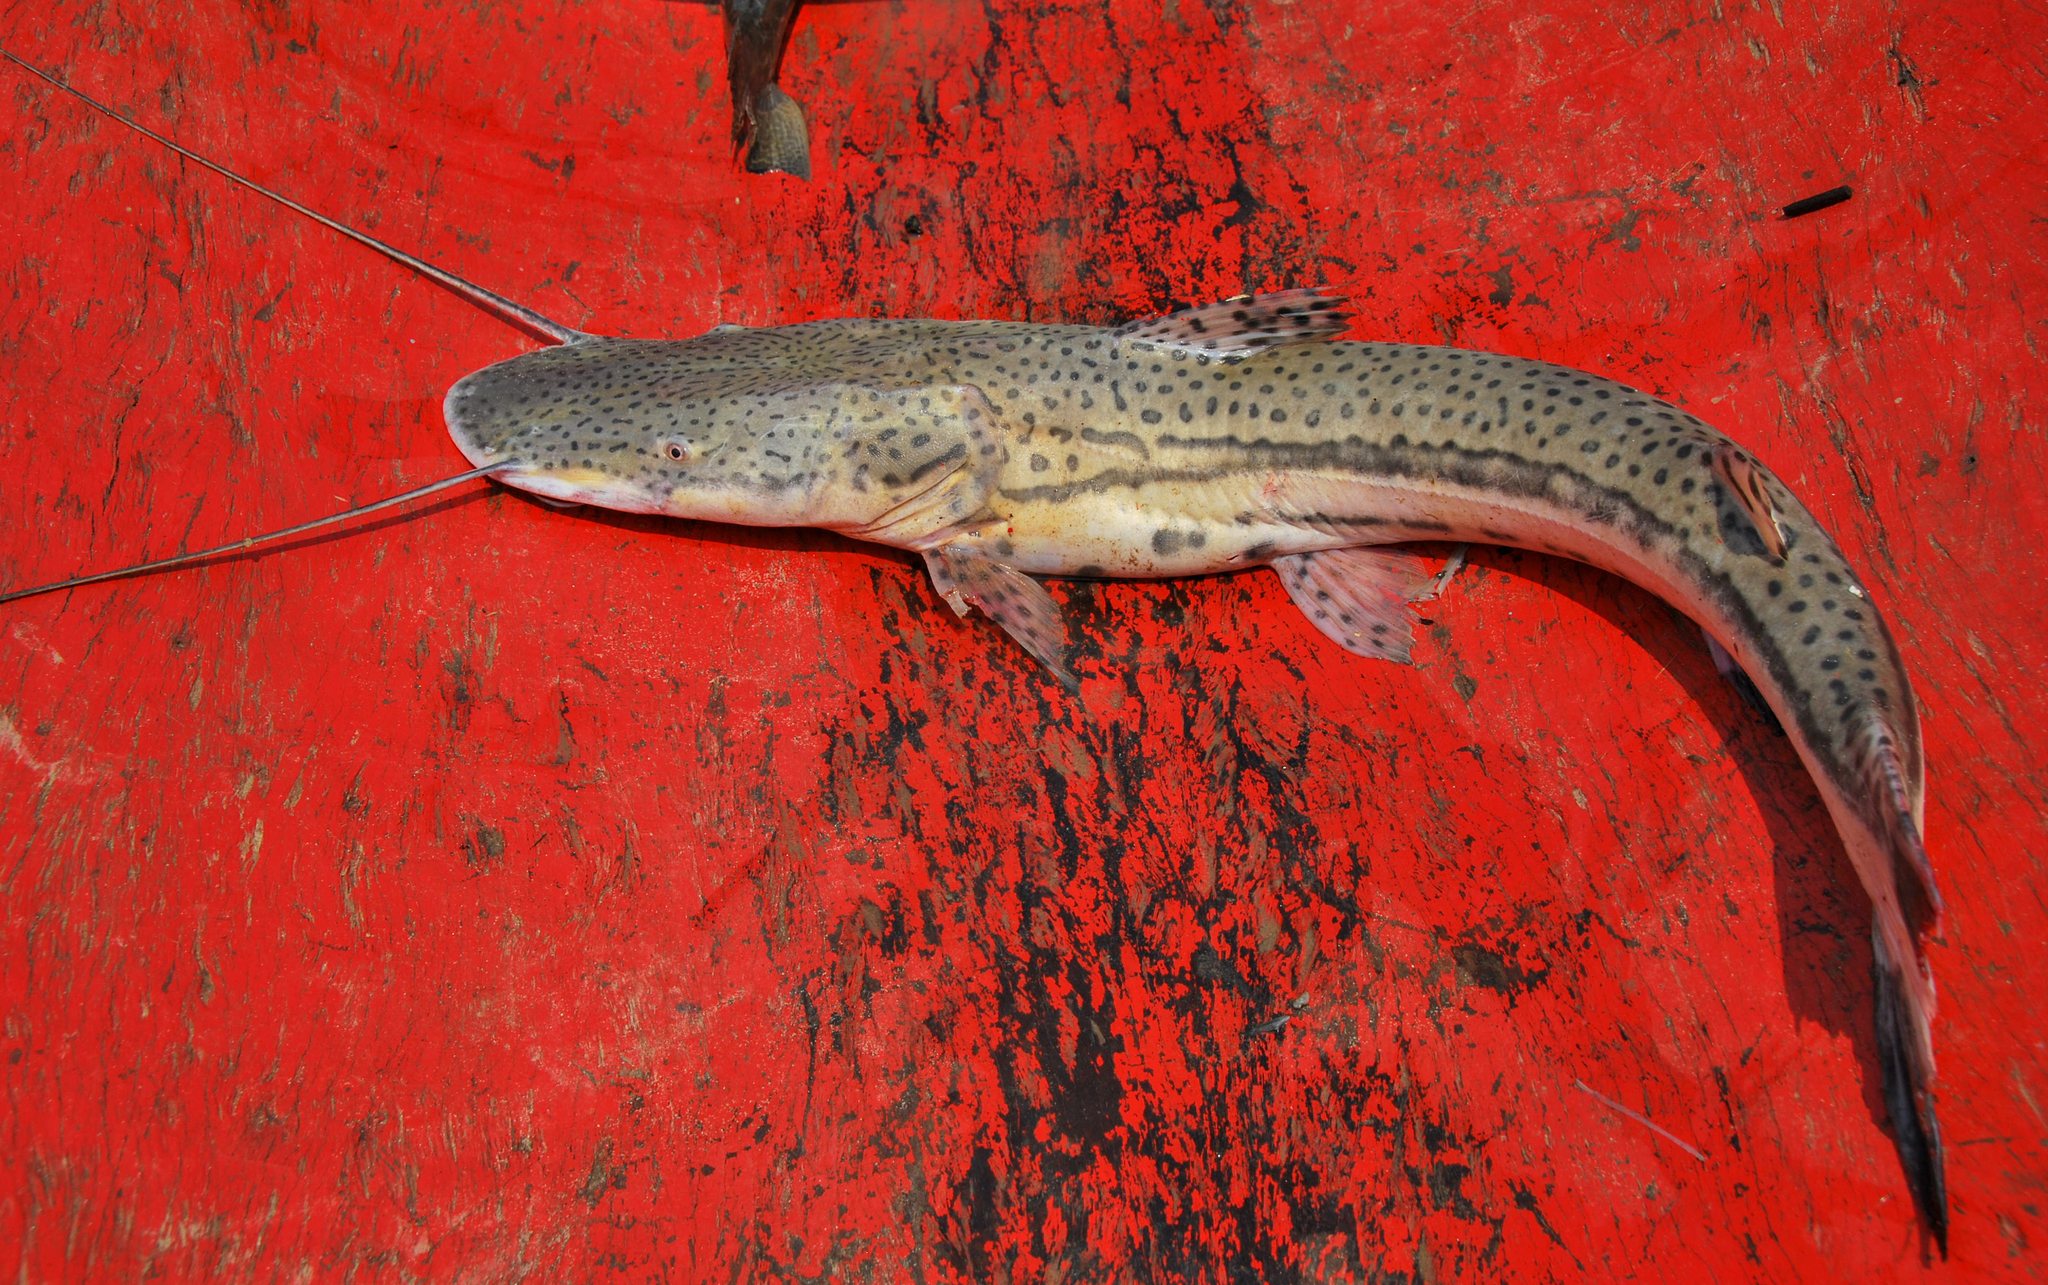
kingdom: Animalia
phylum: Chordata
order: Siluriformes
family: Pimelodidae
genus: Sorubimichthys
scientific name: Sorubimichthys planiceps
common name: Firewood catfish
